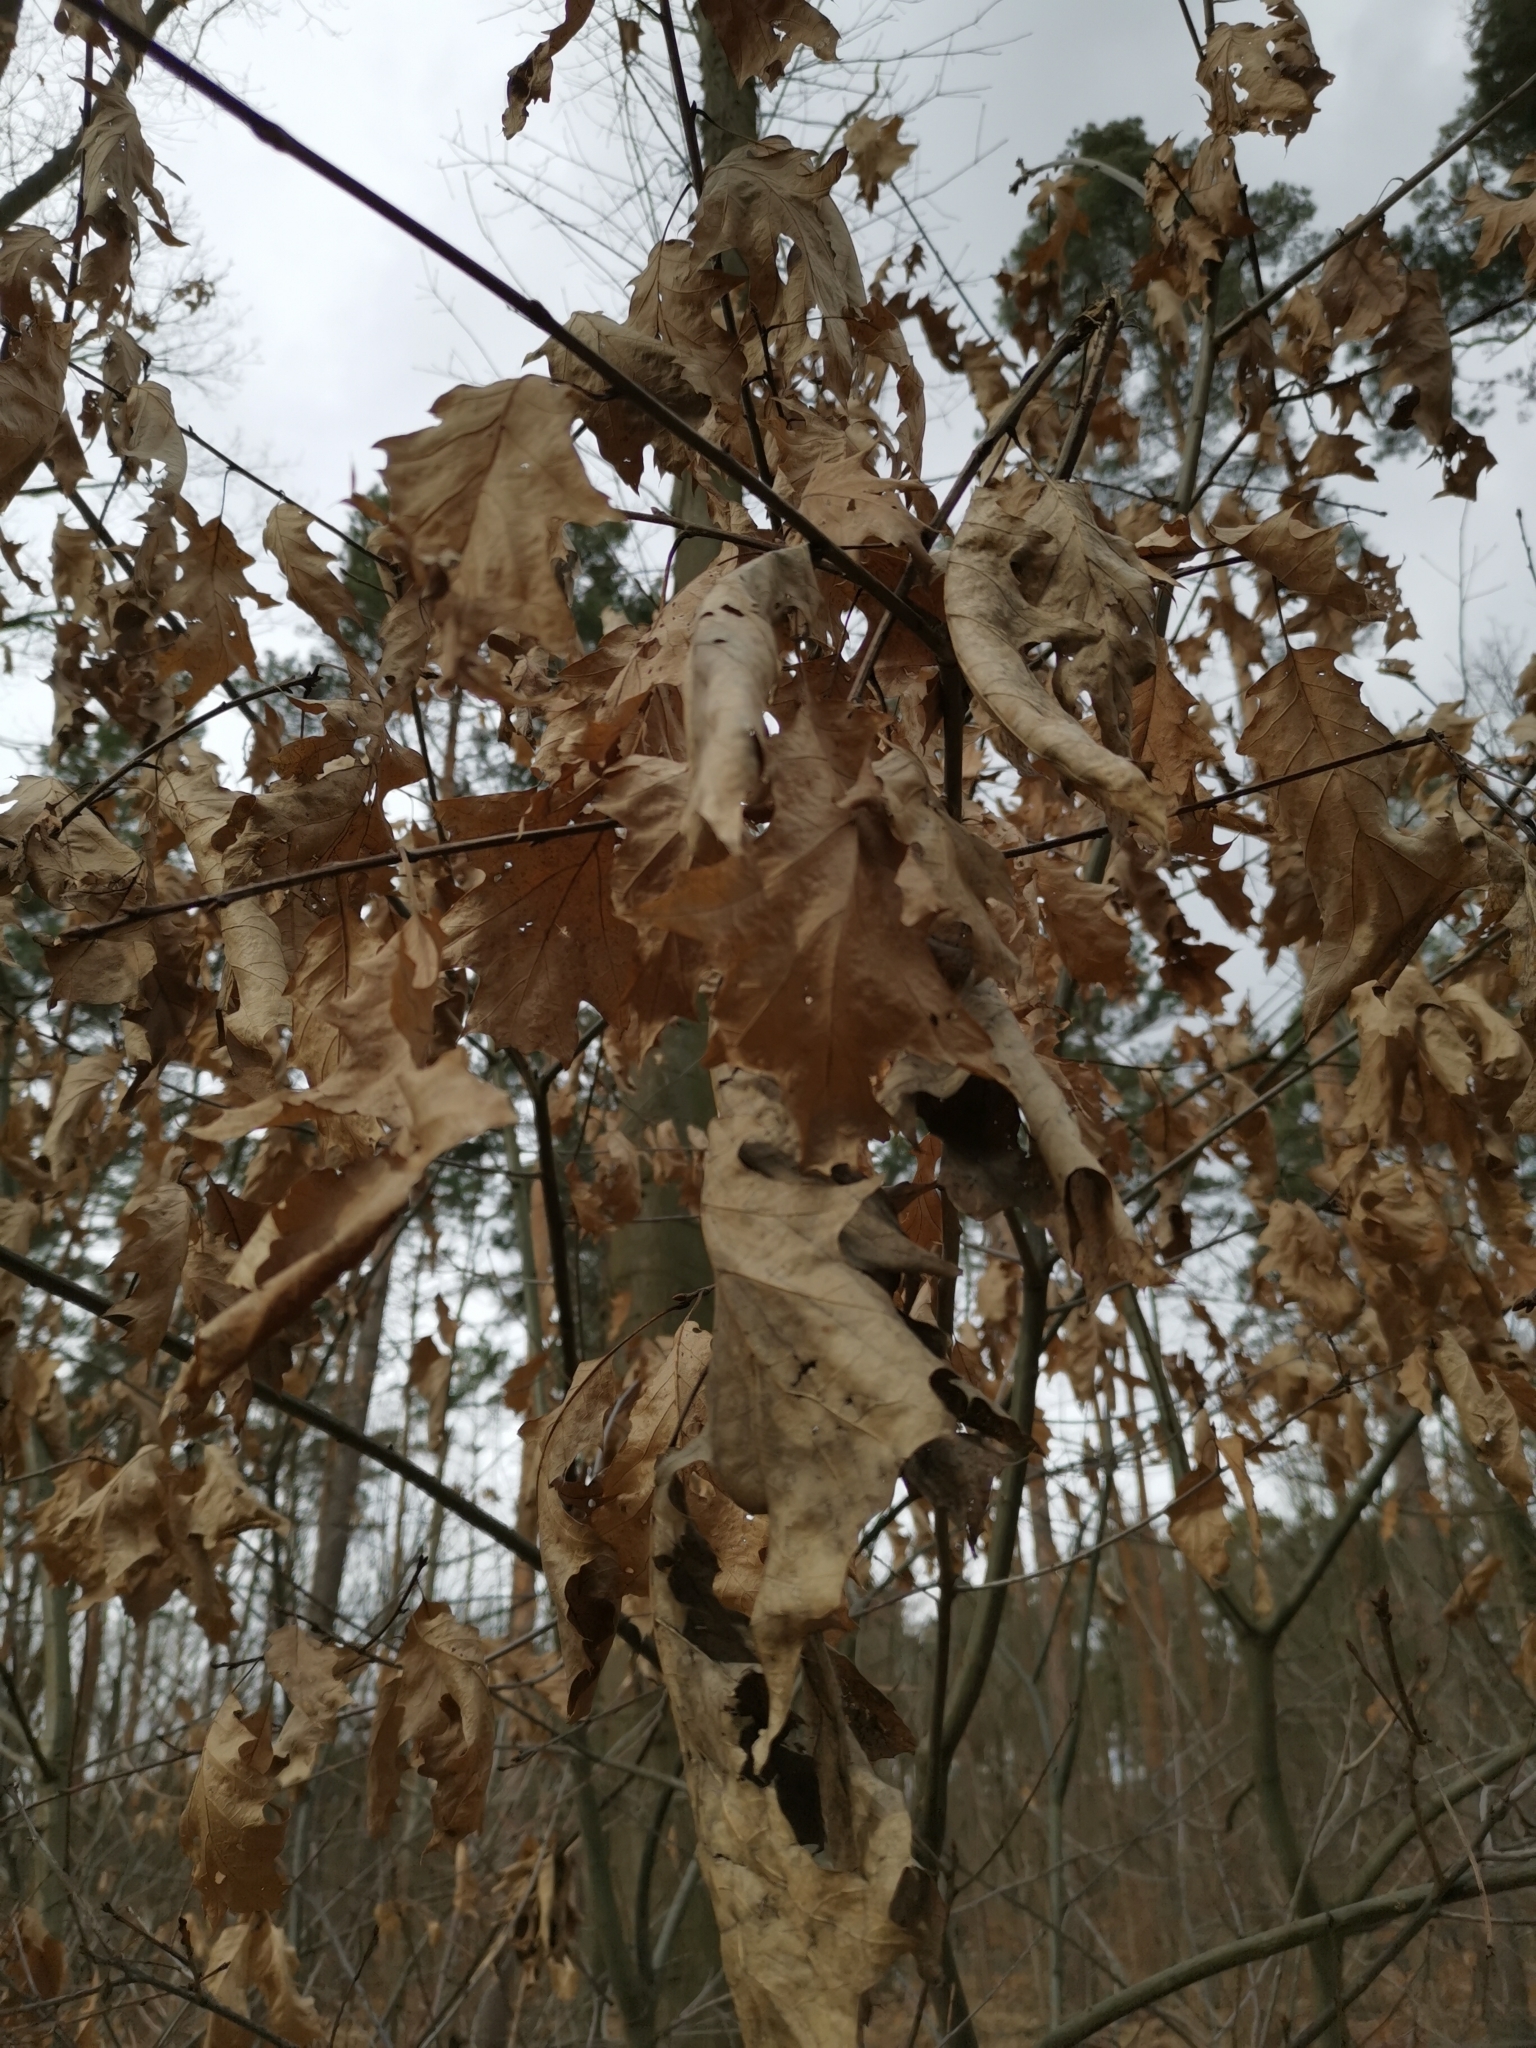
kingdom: Plantae
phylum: Tracheophyta
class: Magnoliopsida
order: Fagales
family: Fagaceae
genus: Quercus
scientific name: Quercus rubra
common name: Red oak
